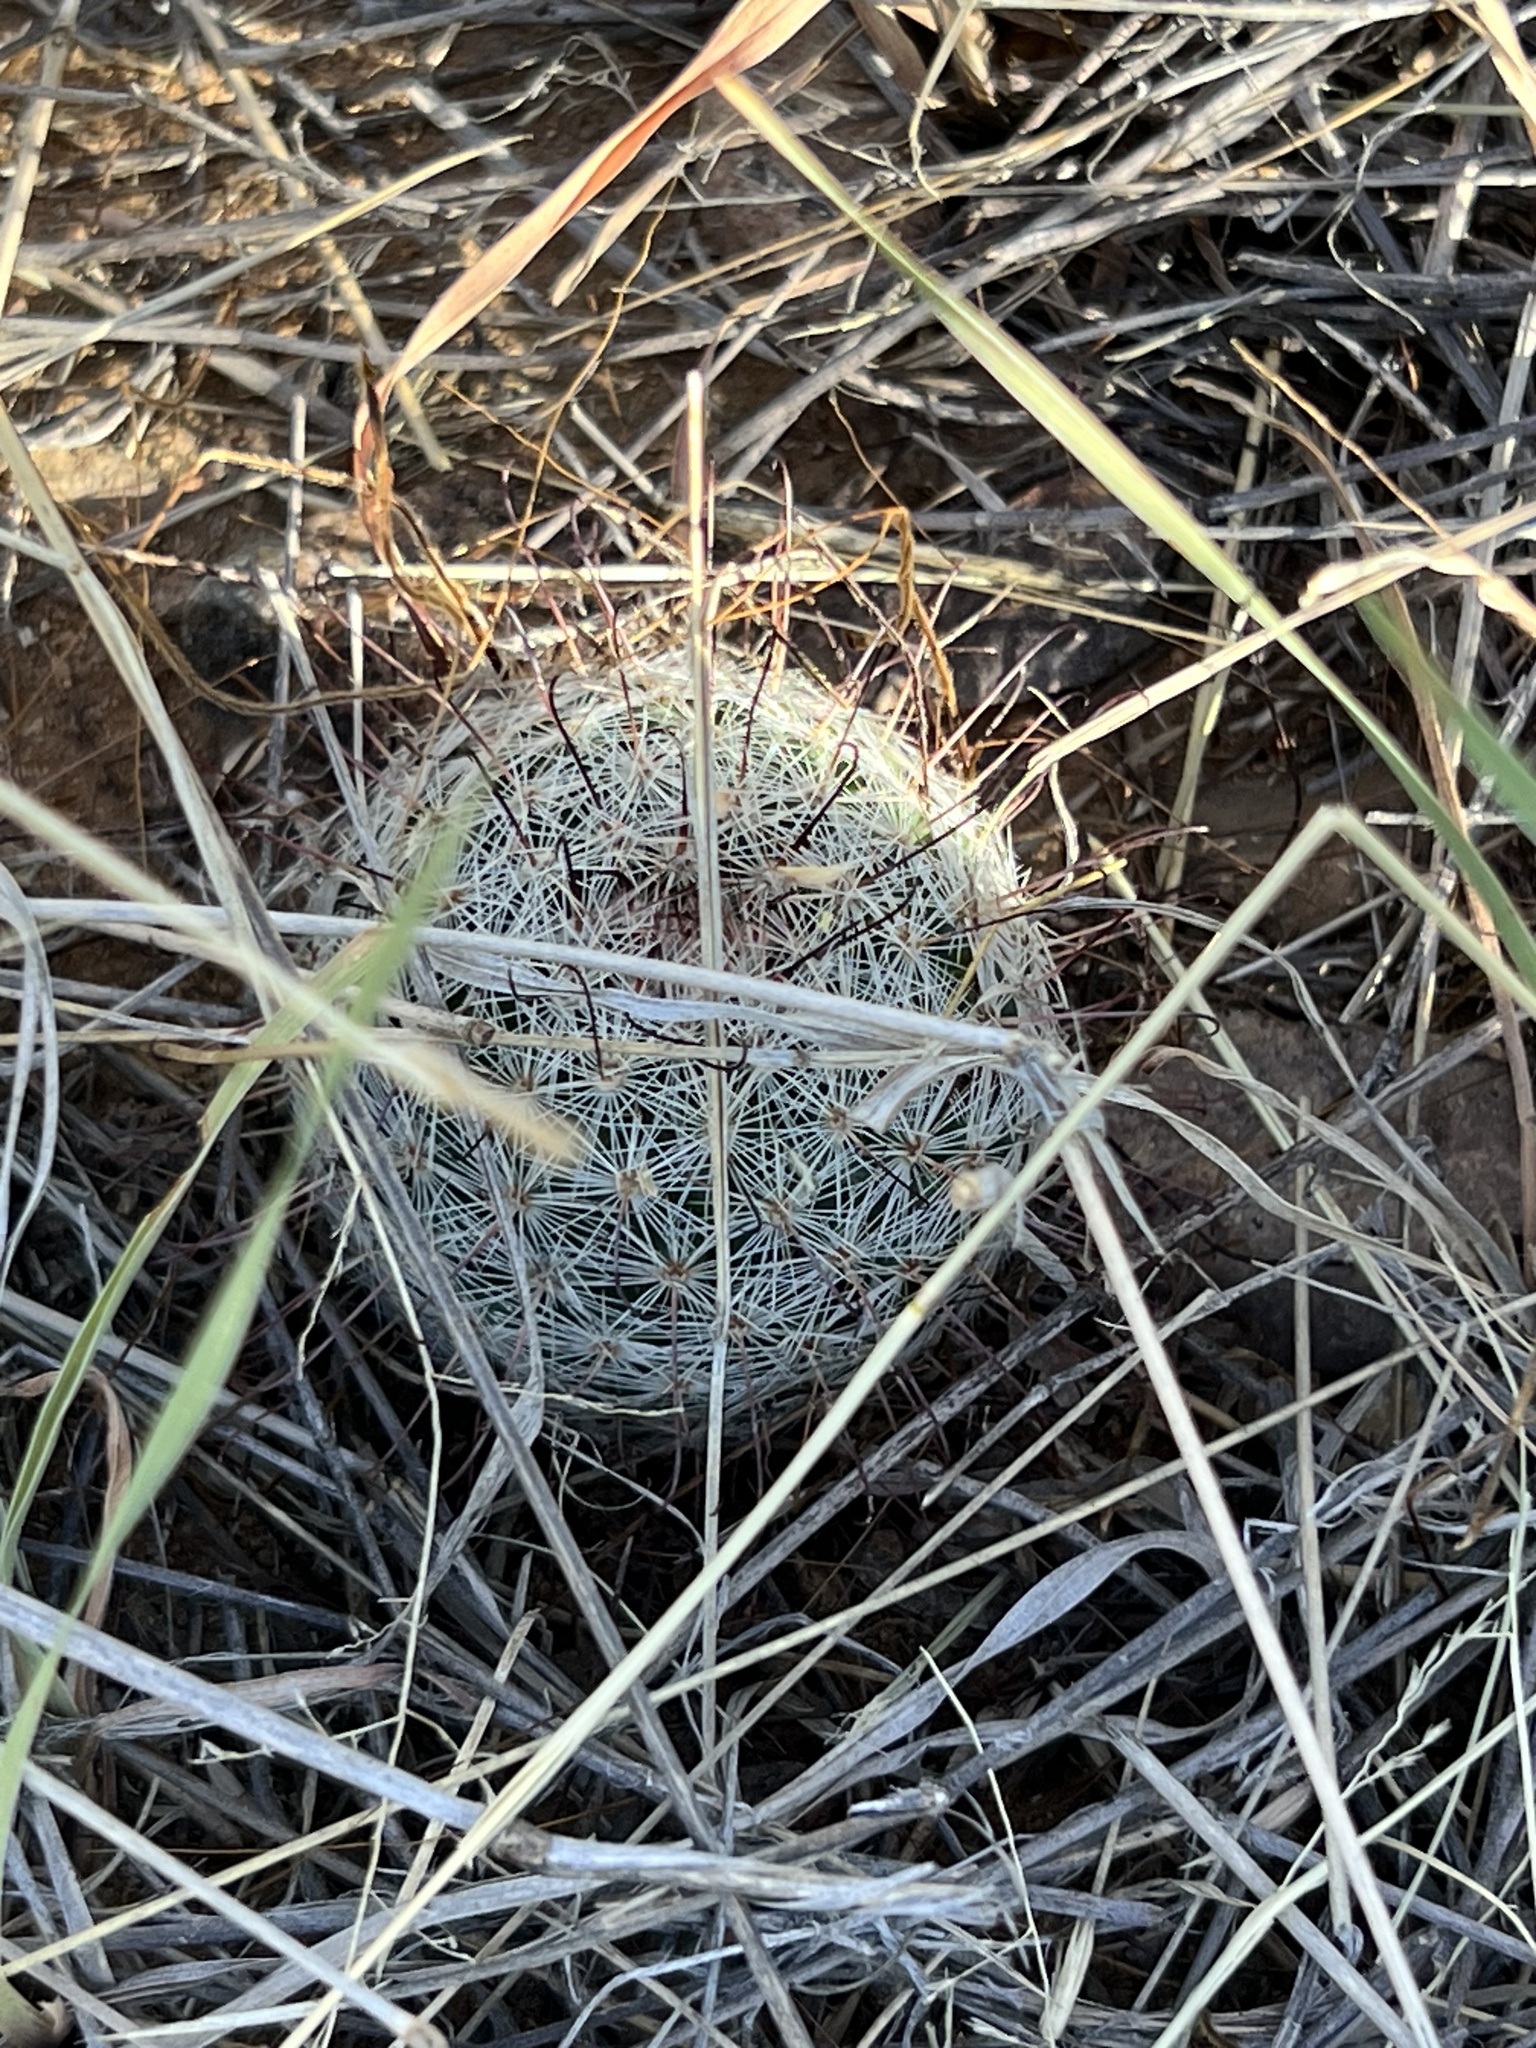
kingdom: Plantae
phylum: Tracheophyta
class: Magnoliopsida
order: Caryophyllales
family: Cactaceae
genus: Cochemiea
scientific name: Cochemiea grahamii
